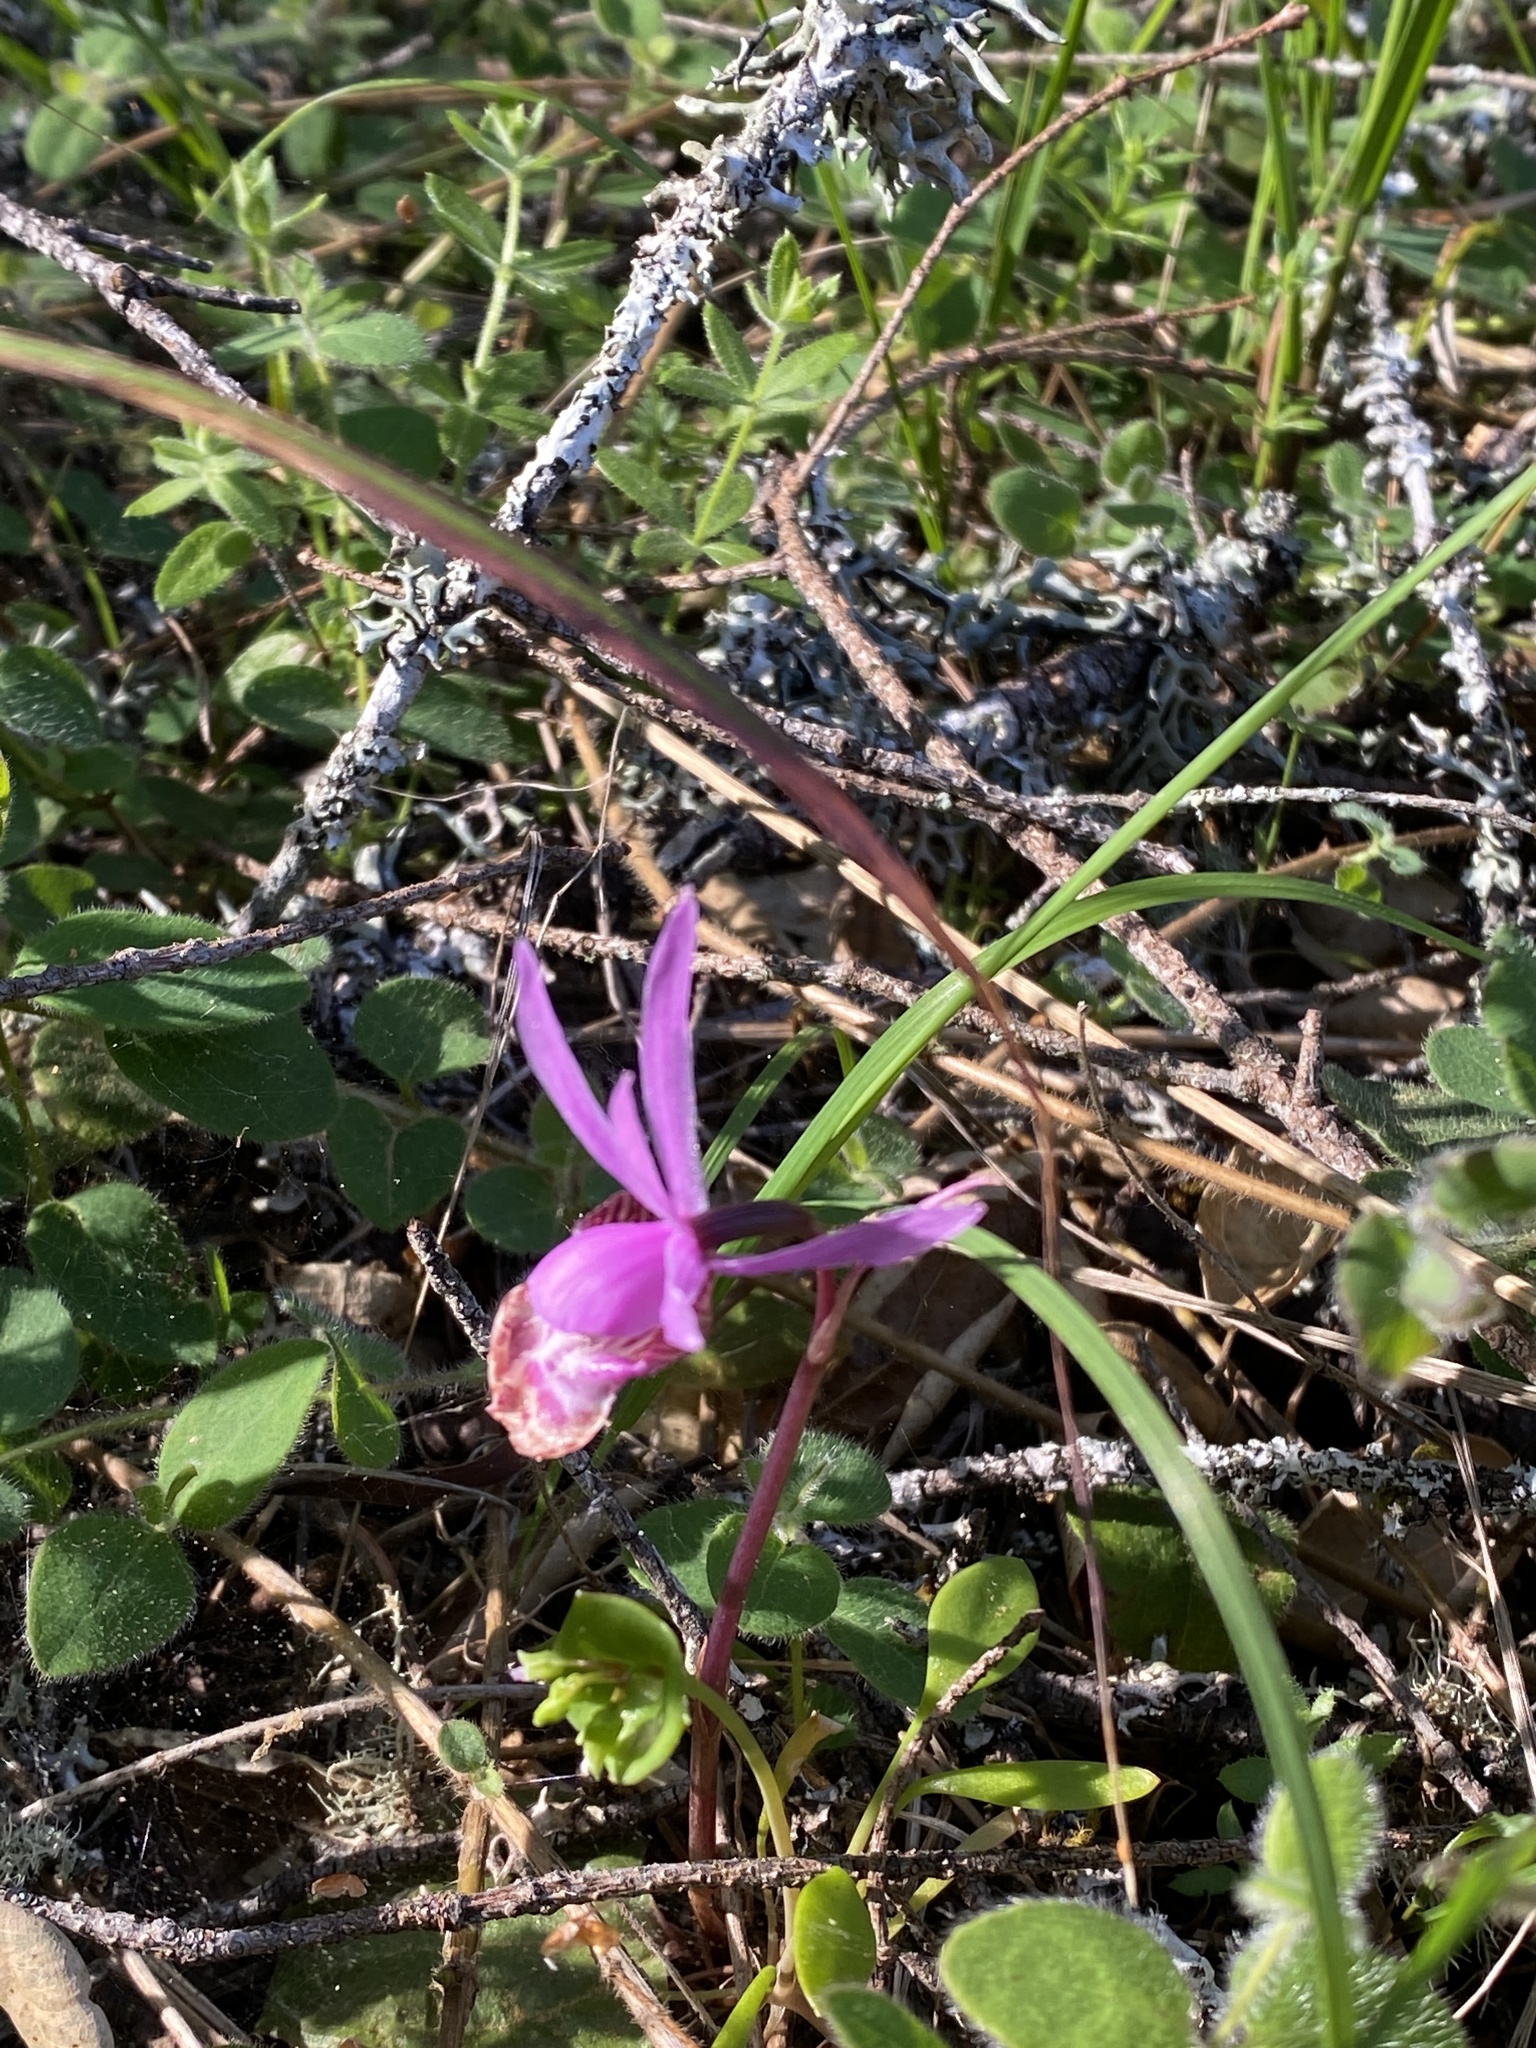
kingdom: Plantae
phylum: Tracheophyta
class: Liliopsida
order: Asparagales
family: Orchidaceae
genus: Calypso
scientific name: Calypso bulbosa
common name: Calypso
